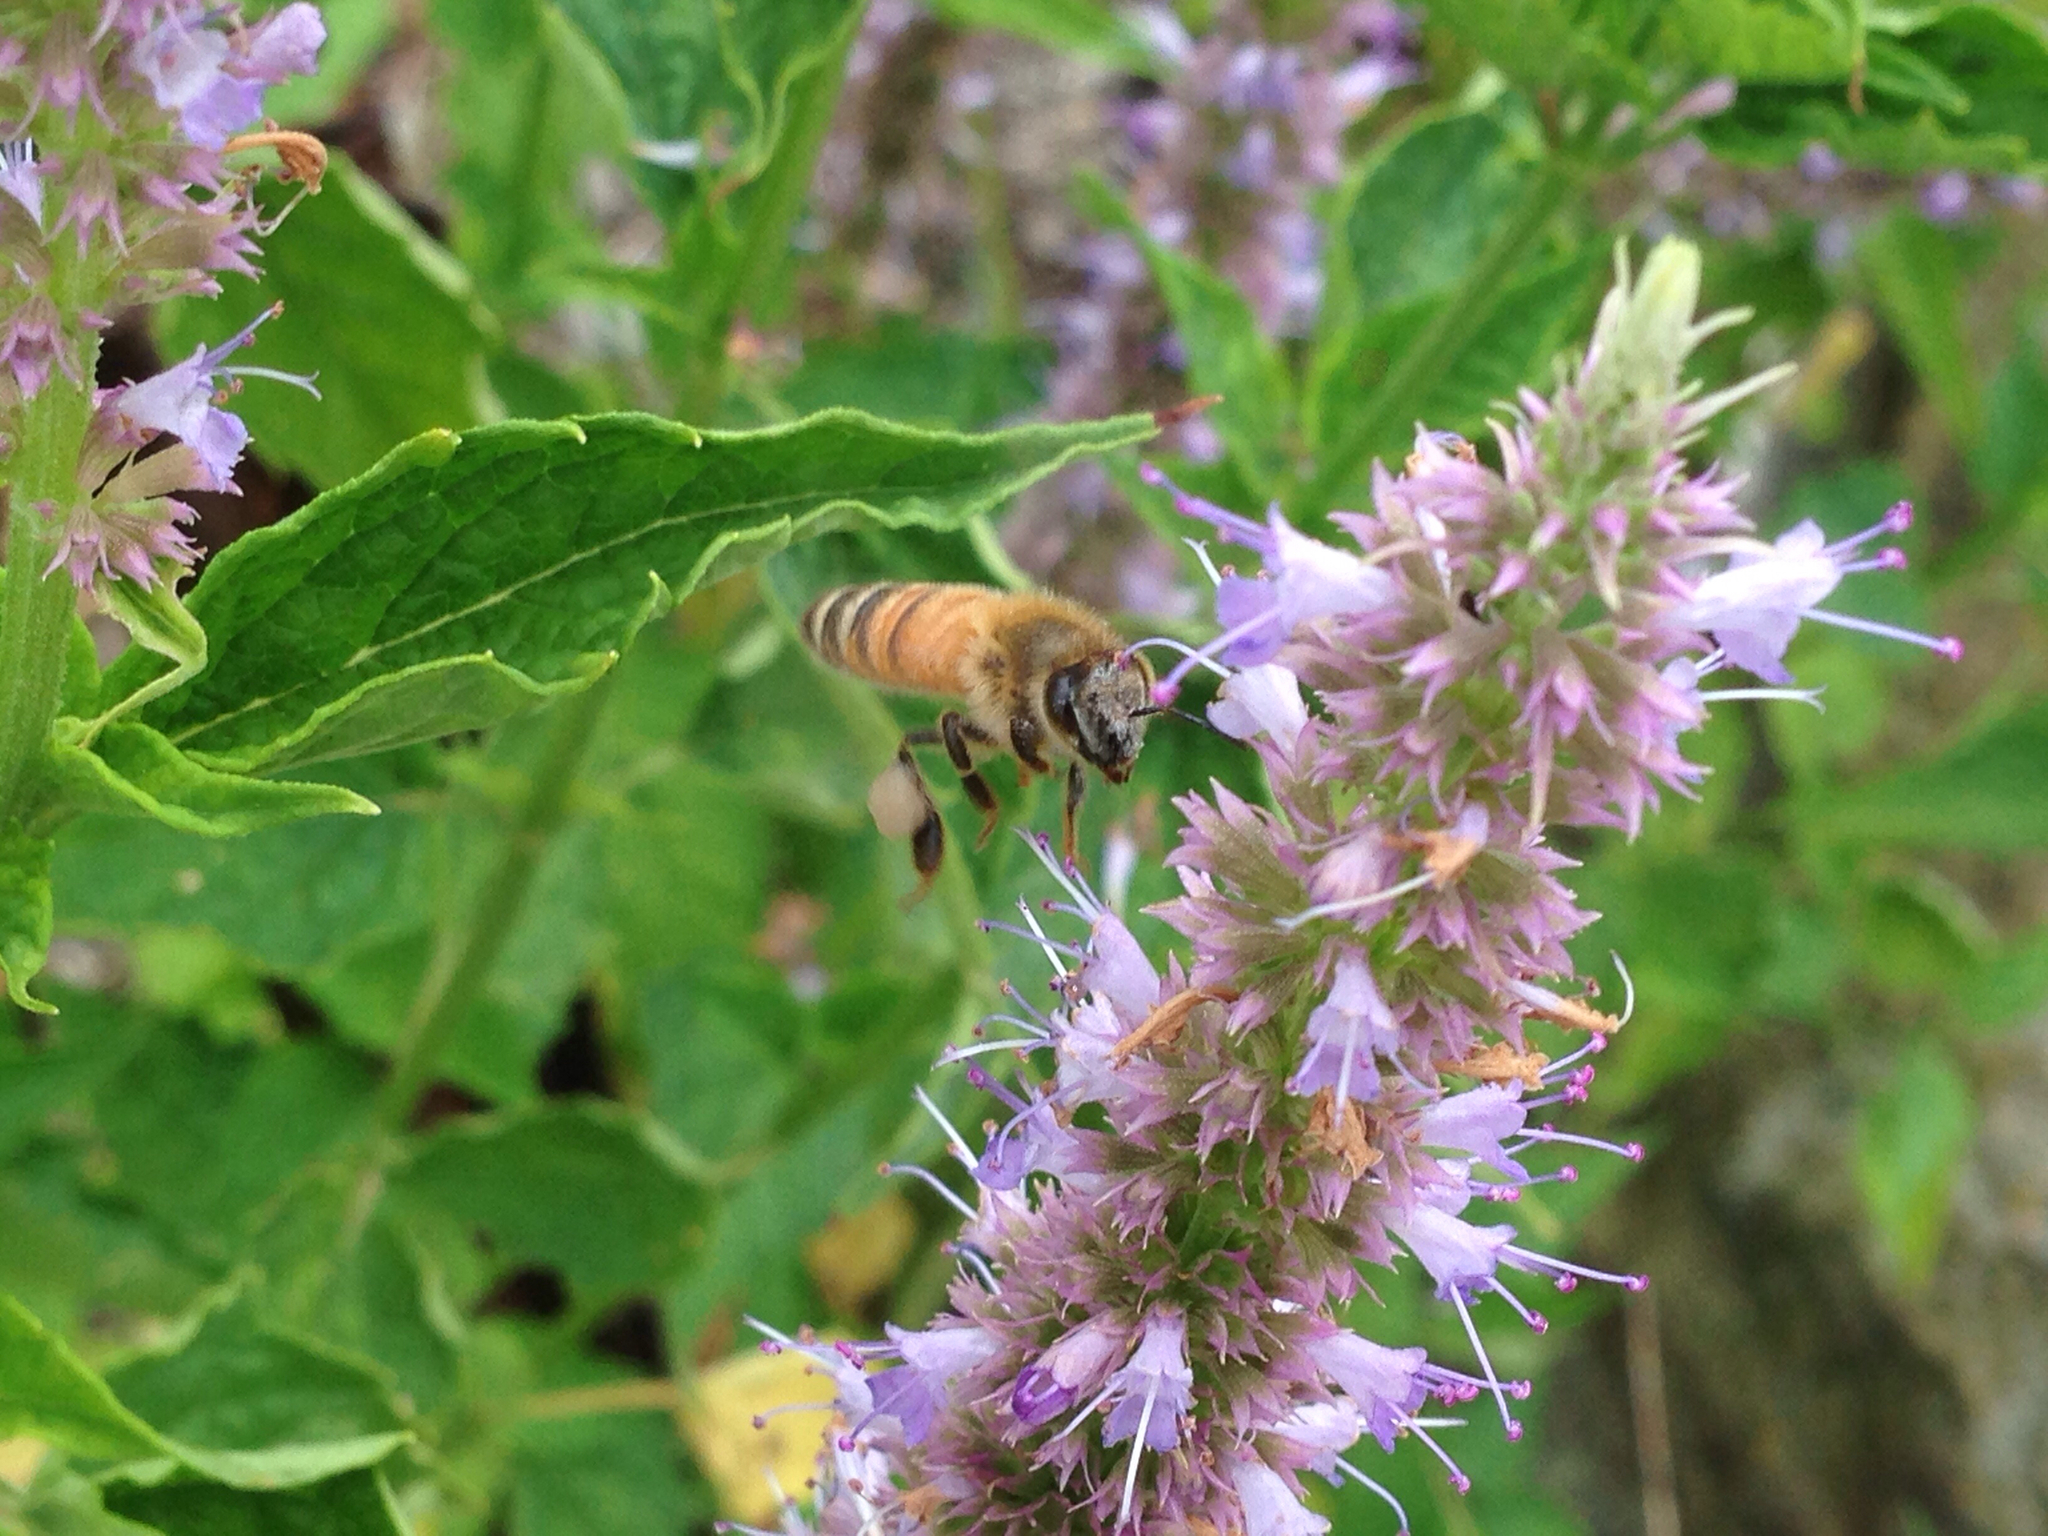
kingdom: Animalia
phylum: Arthropoda
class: Insecta
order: Hymenoptera
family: Apidae
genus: Apis
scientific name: Apis mellifera
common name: Honey bee
